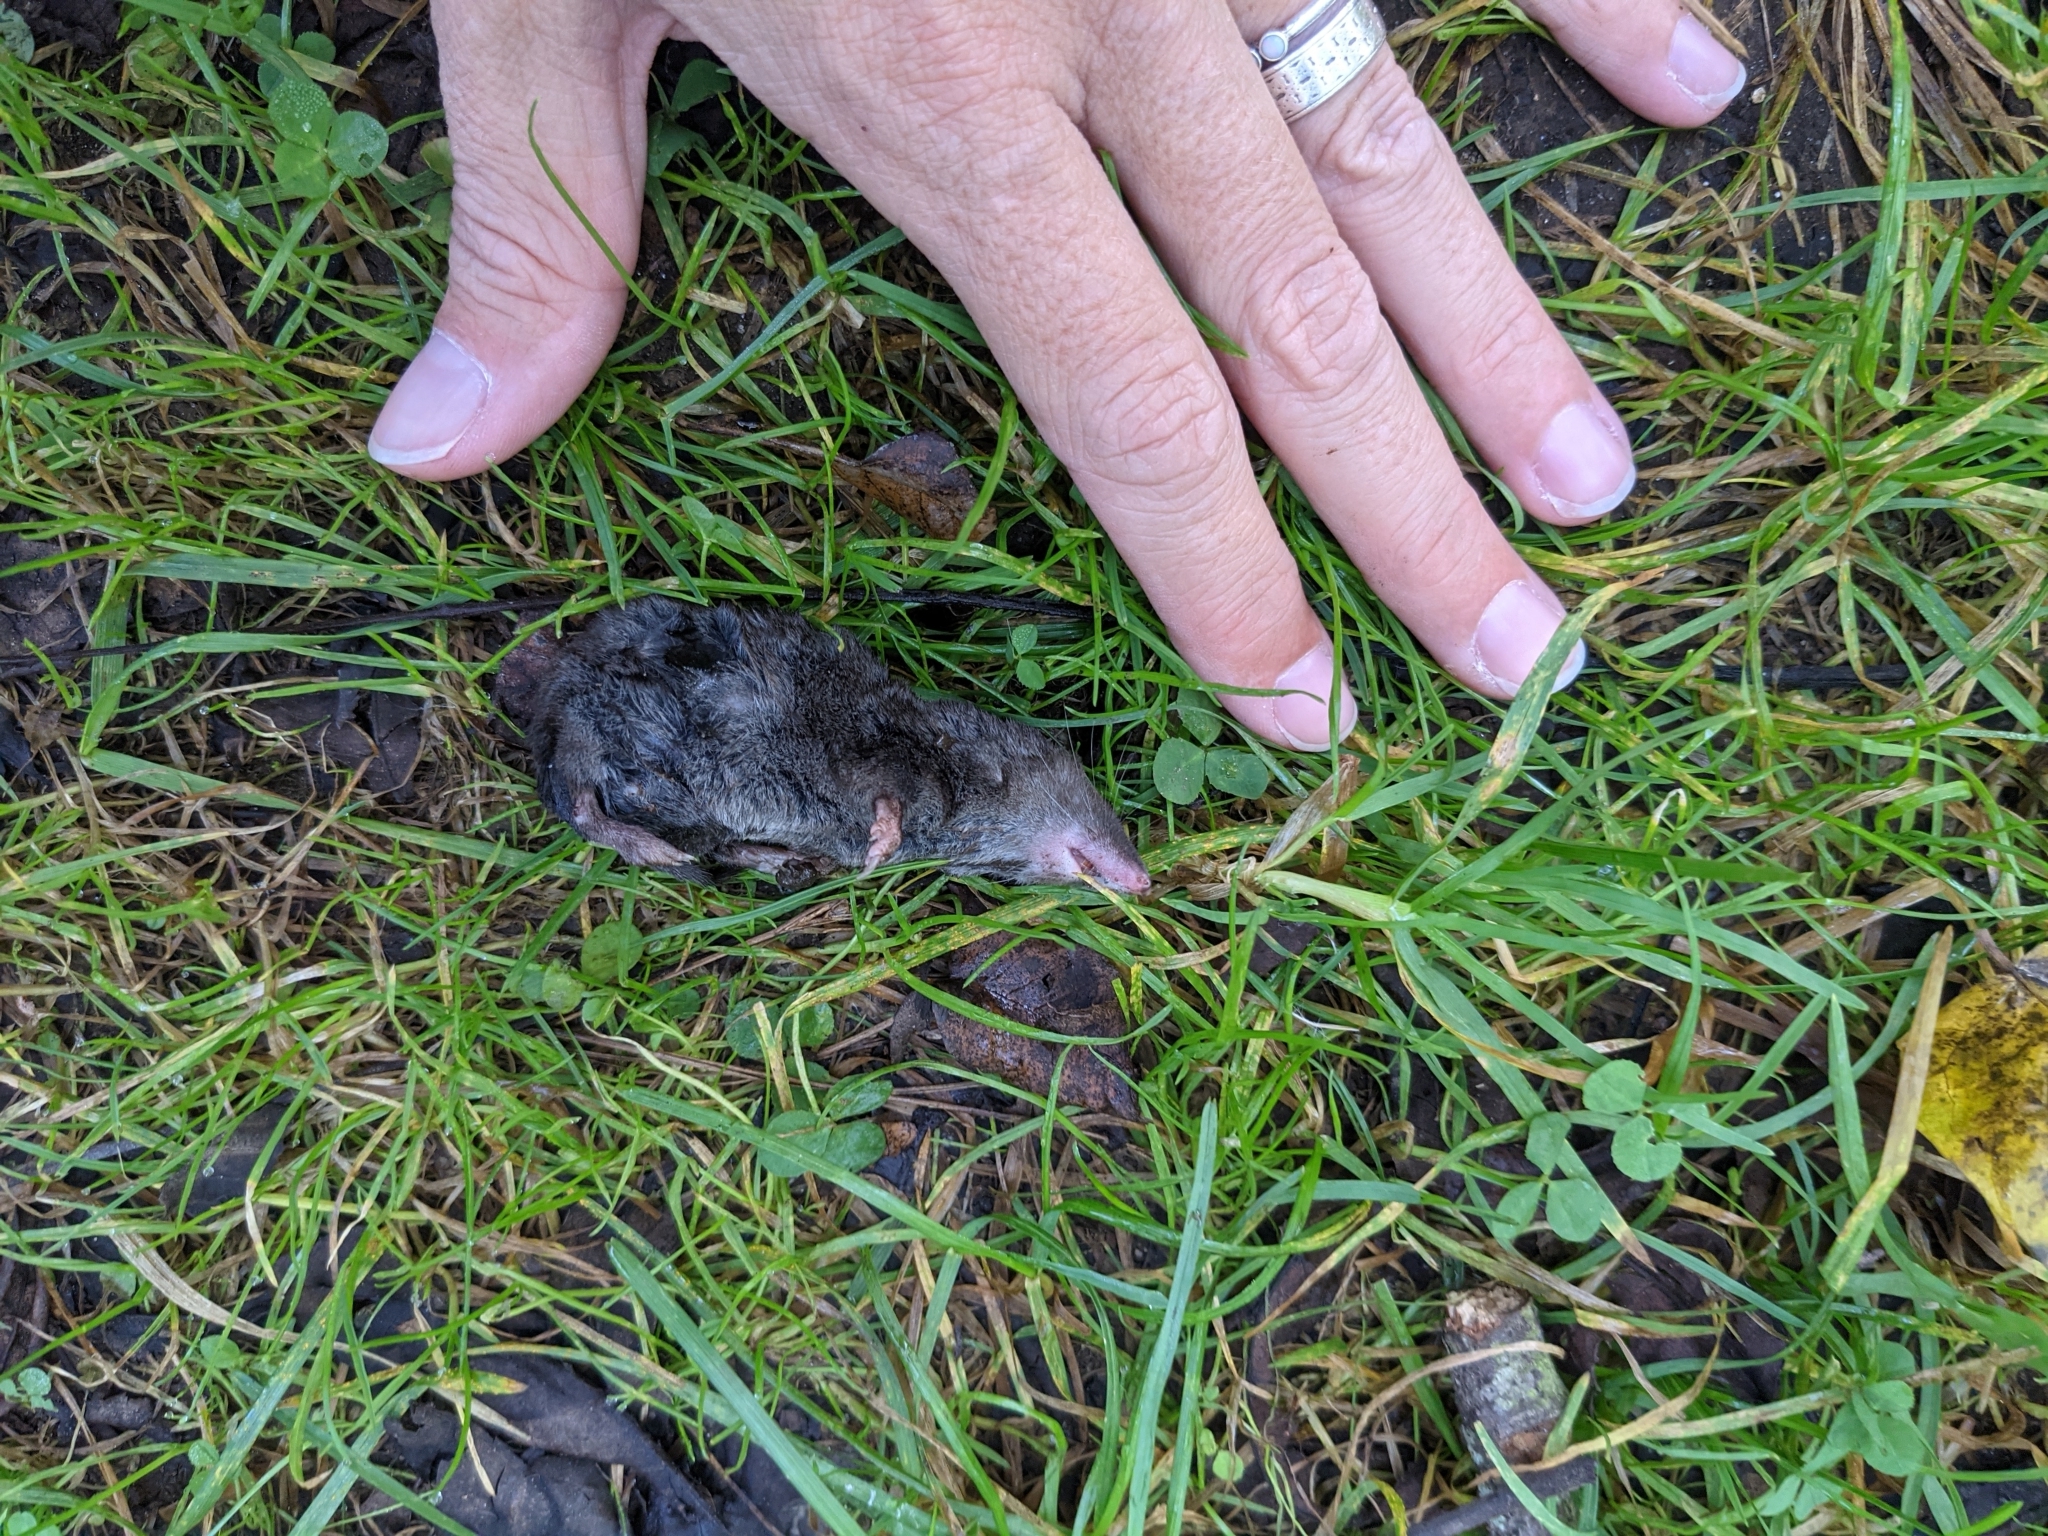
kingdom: Animalia
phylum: Chordata
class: Mammalia
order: Soricomorpha
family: Soricidae
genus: Blarina
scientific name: Blarina brevicauda
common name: Northern short-tailed shrew
